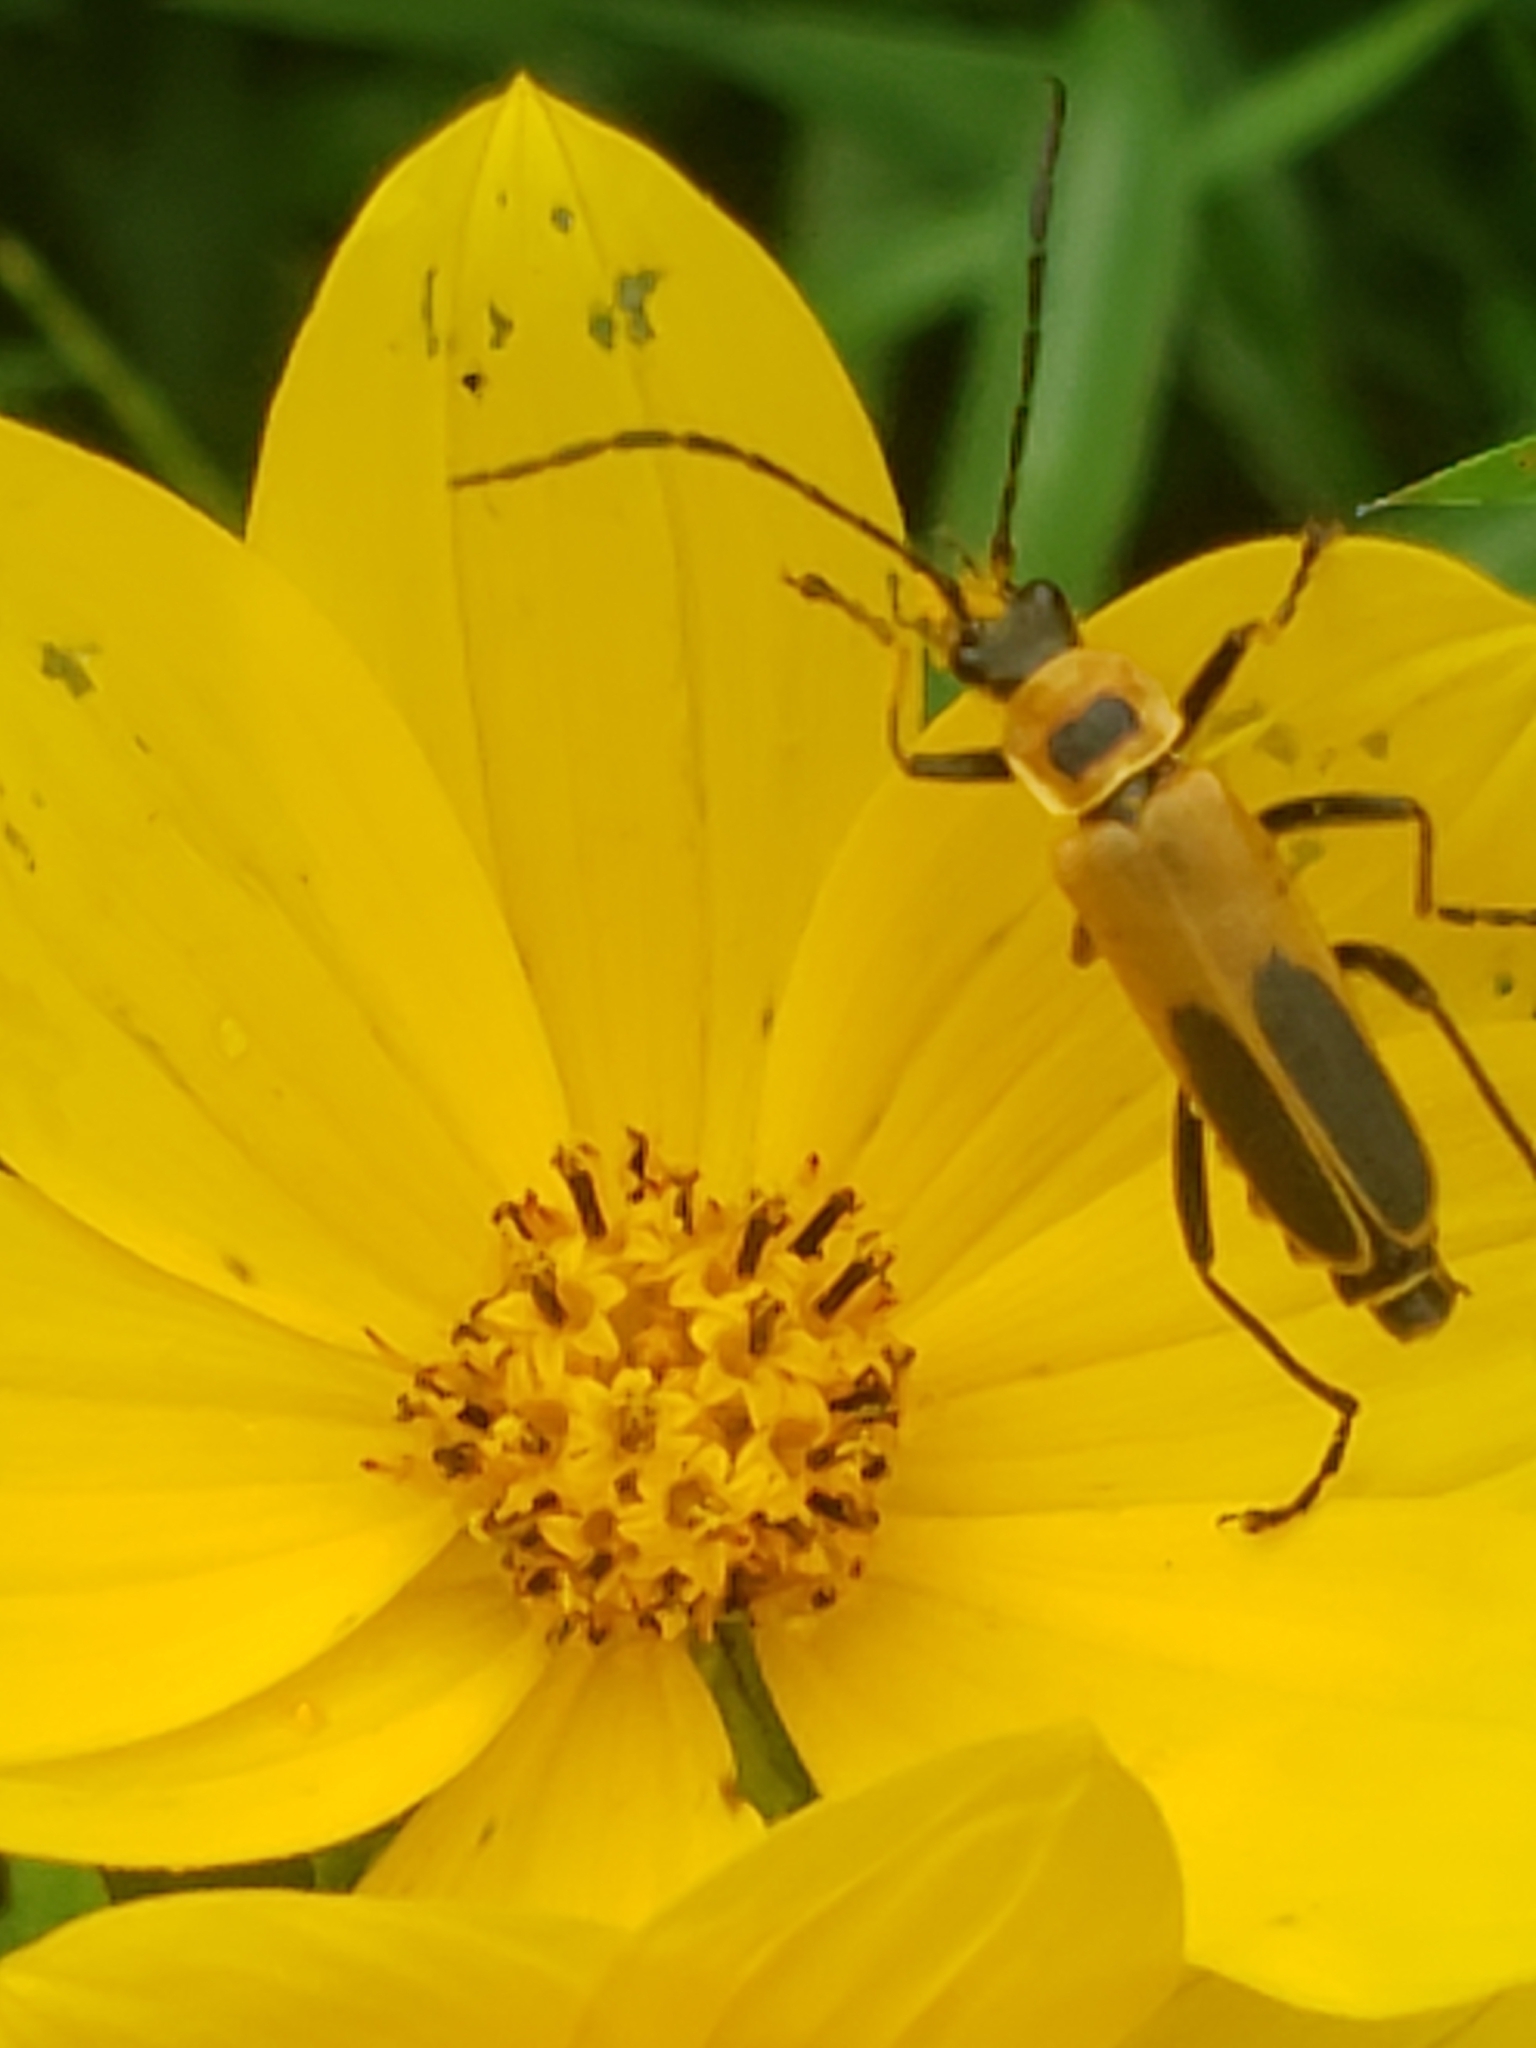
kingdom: Animalia
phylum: Arthropoda
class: Insecta
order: Coleoptera
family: Cantharidae
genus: Chauliognathus
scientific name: Chauliognathus pensylvanicus
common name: Goldenrod soldier beetle
